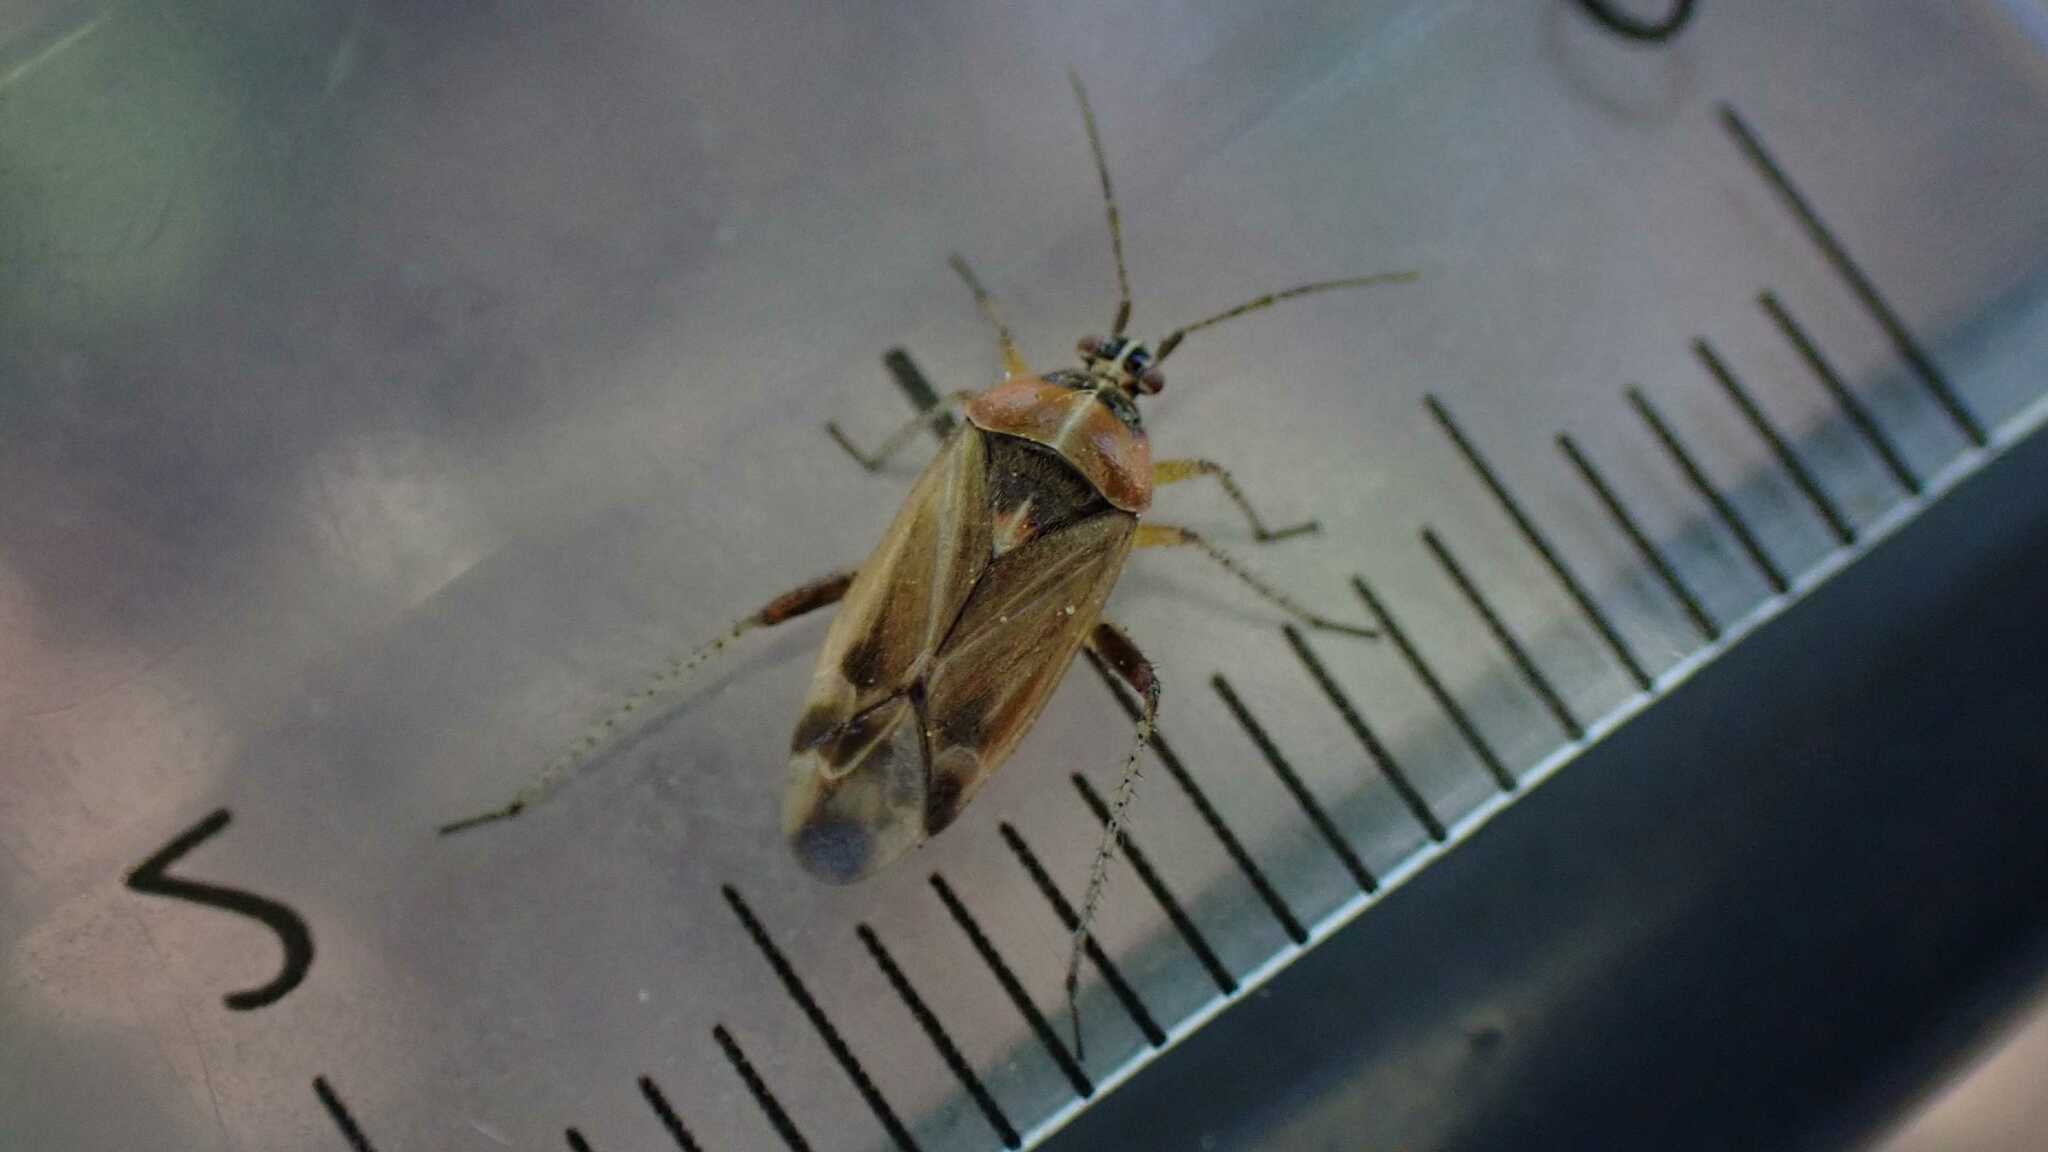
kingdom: Animalia
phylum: Arthropoda
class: Insecta
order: Hemiptera
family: Miridae
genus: Harpocera
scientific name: Harpocera thoracica
